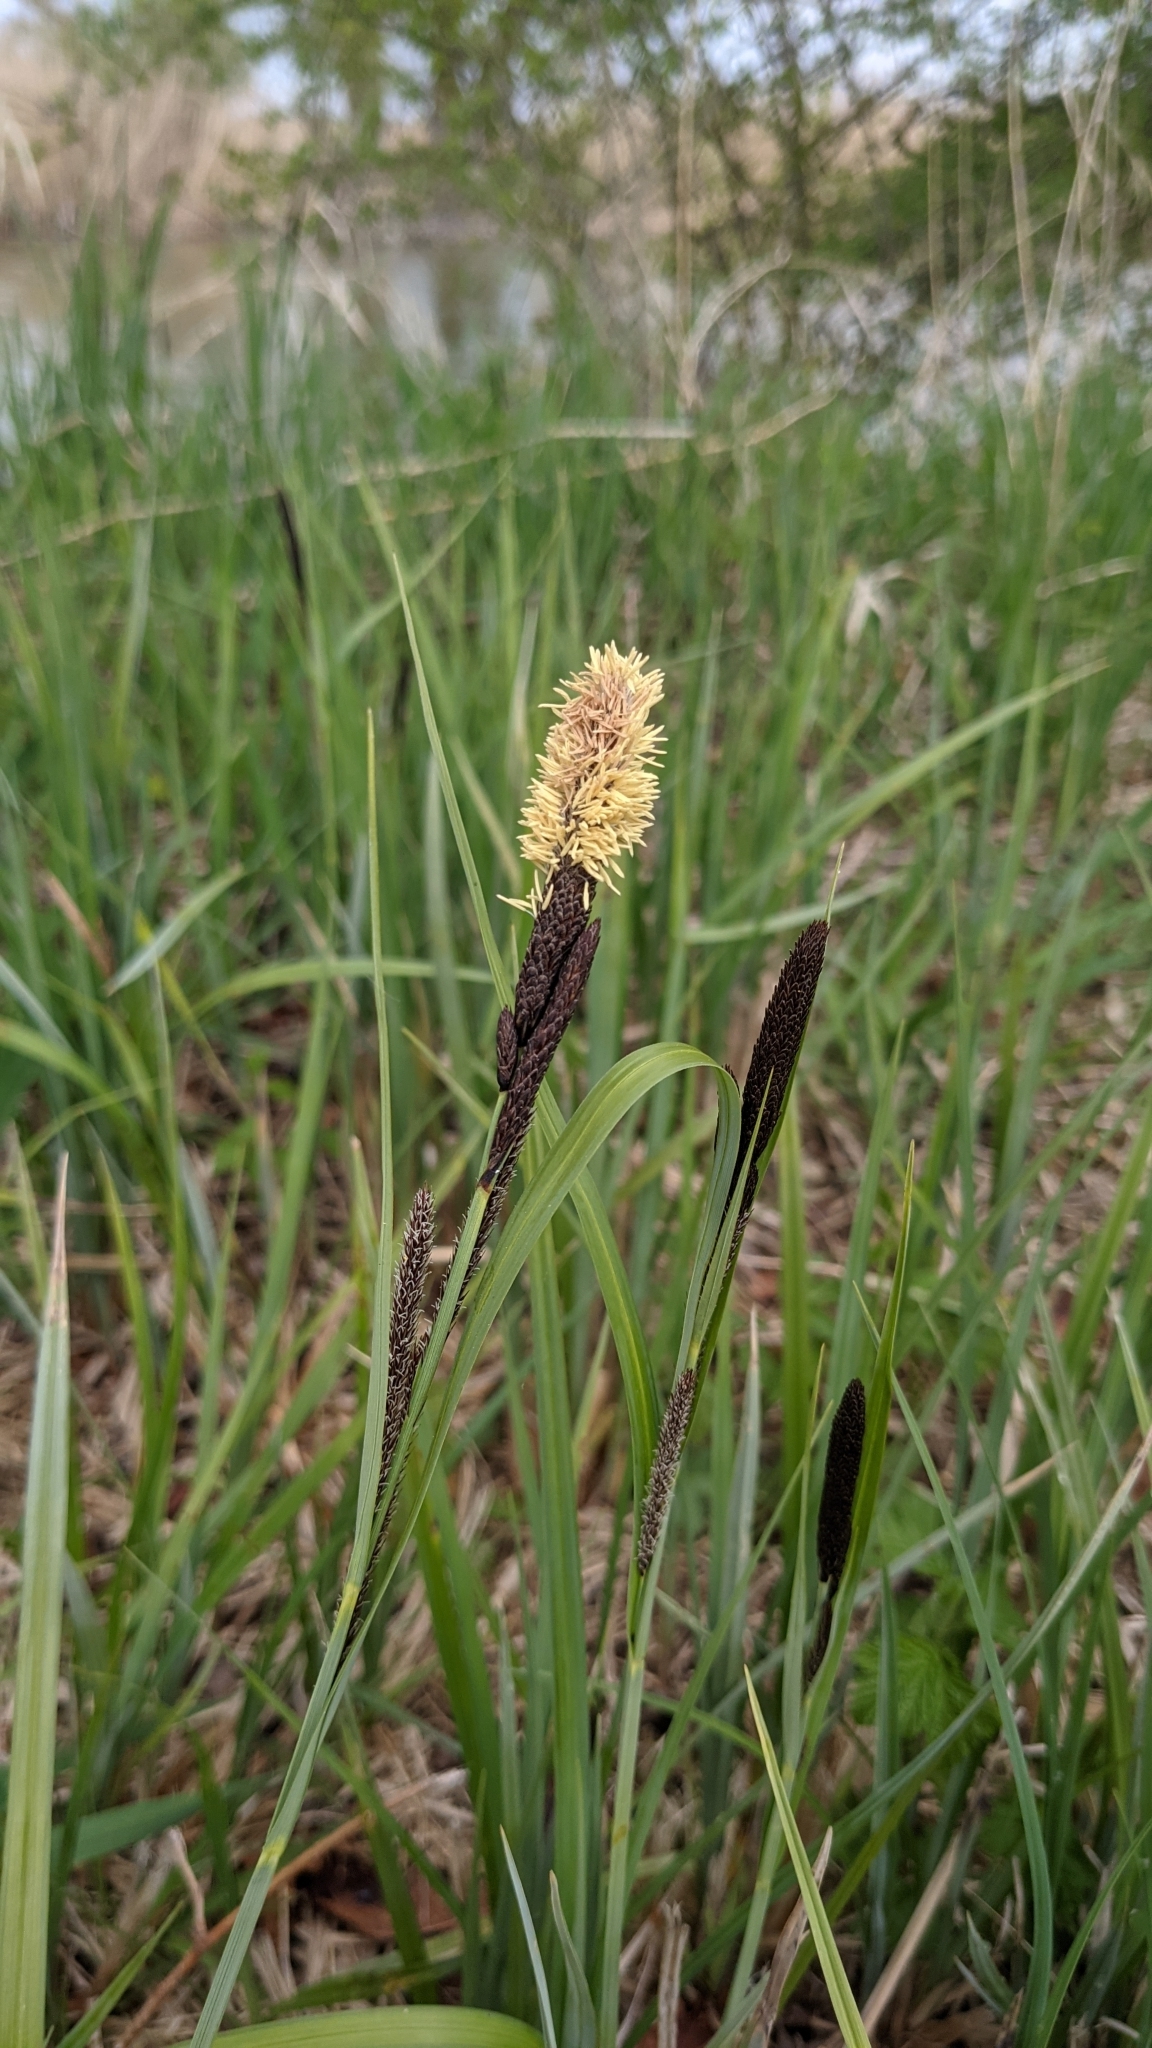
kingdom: Plantae
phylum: Tracheophyta
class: Liliopsida
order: Poales
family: Cyperaceae
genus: Carex
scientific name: Carex acutiformis
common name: Lesser pond-sedge
